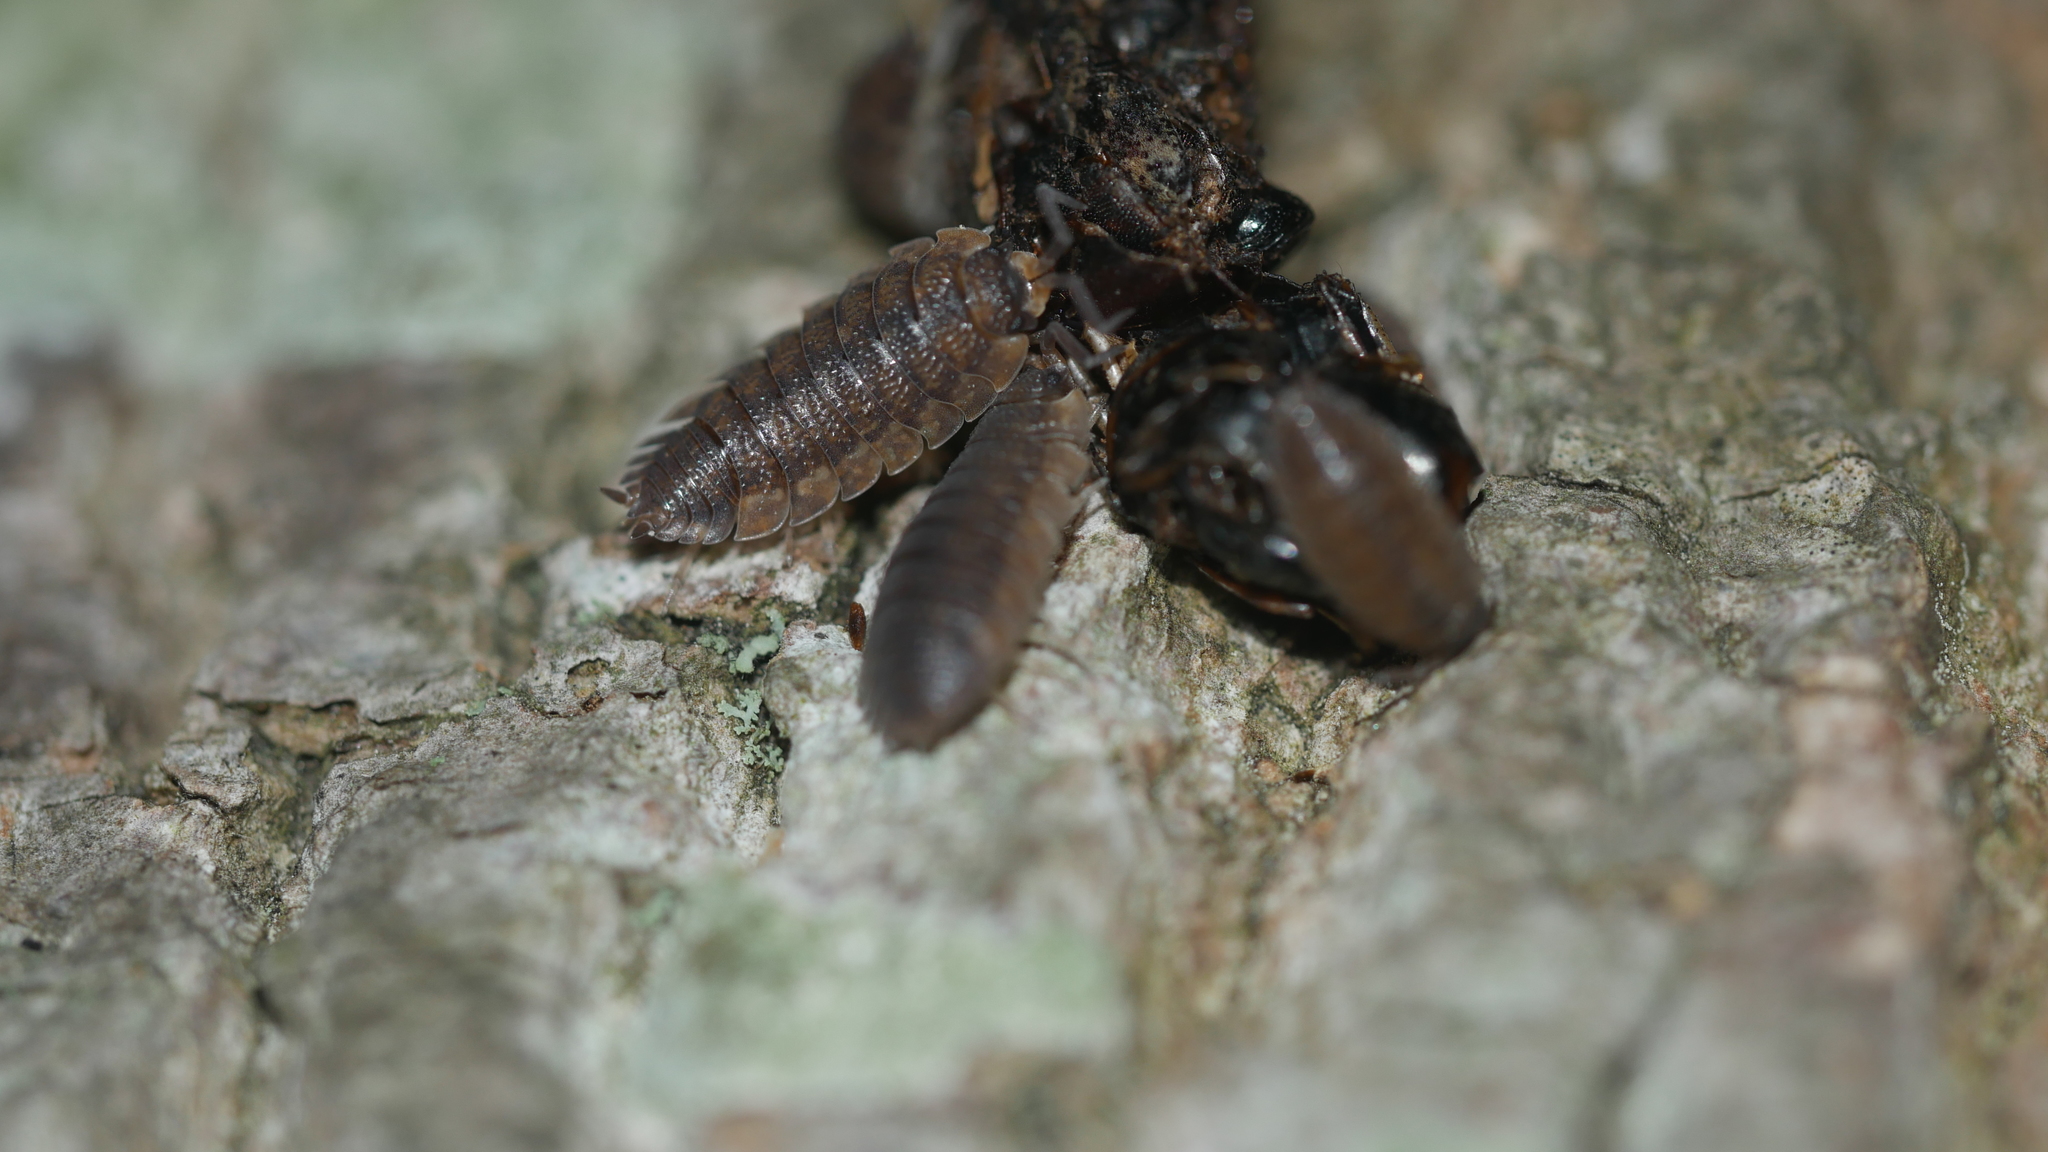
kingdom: Animalia
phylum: Arthropoda
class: Malacostraca
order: Isopoda
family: Porcellionidae
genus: Porcellio
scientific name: Porcellio scaber
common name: Common rough woodlouse
